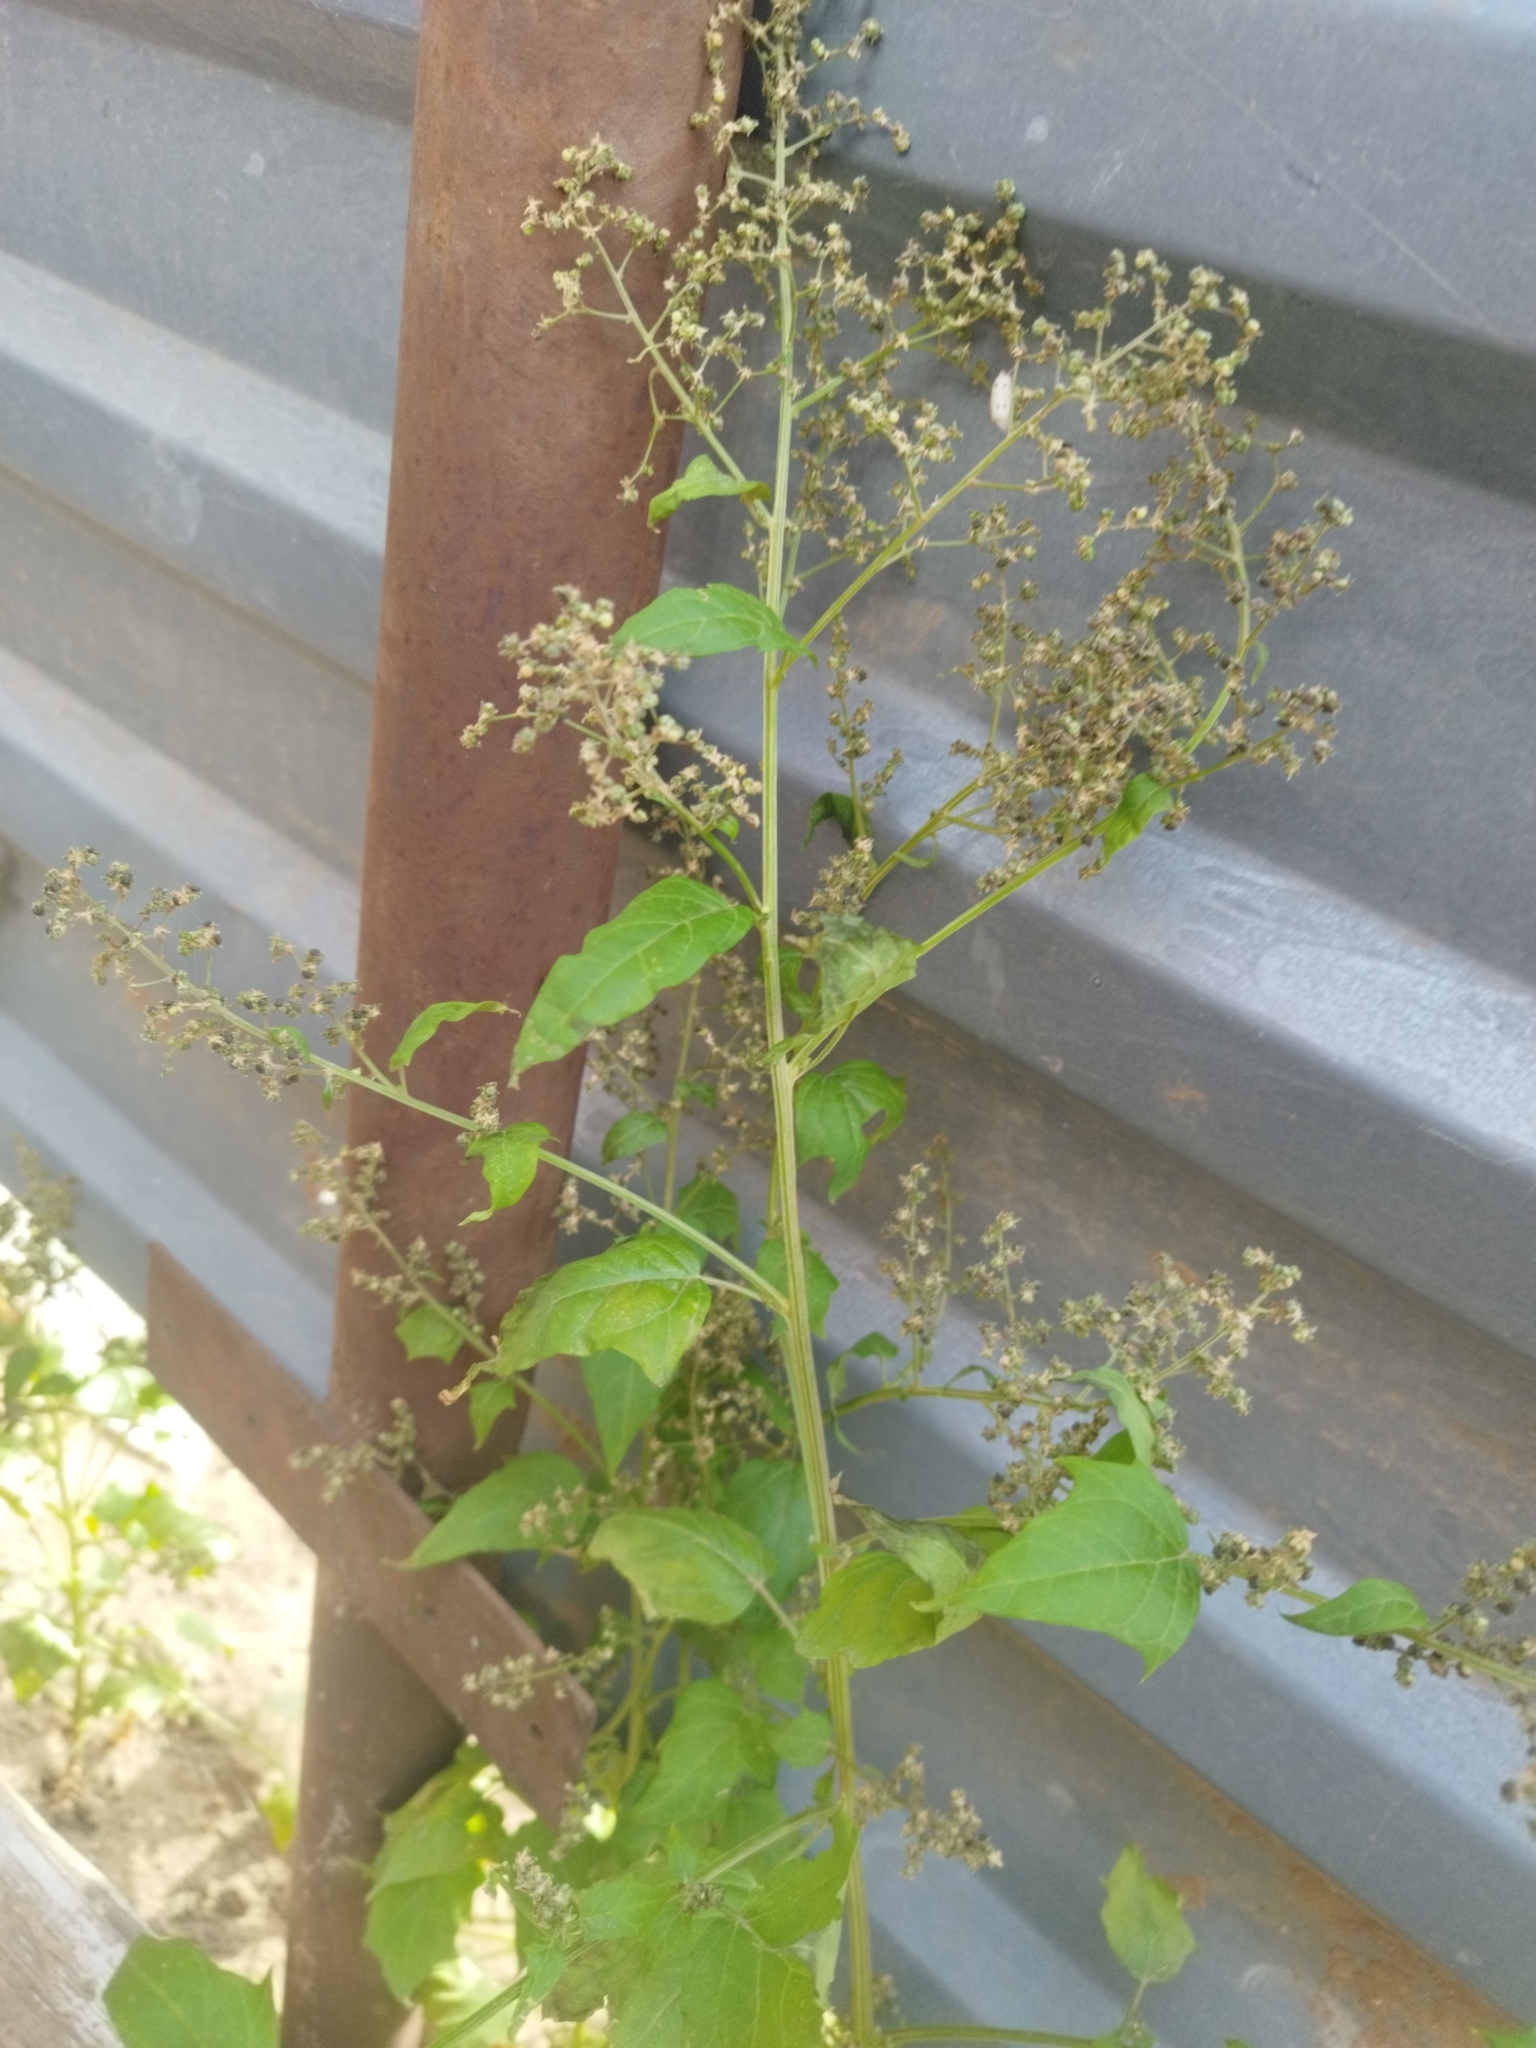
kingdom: Plantae
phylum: Tracheophyta
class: Magnoliopsida
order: Caryophyllales
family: Amaranthaceae
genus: Chenopodiastrum
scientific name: Chenopodiastrum hybridum
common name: Mapleleaf goosefoot
